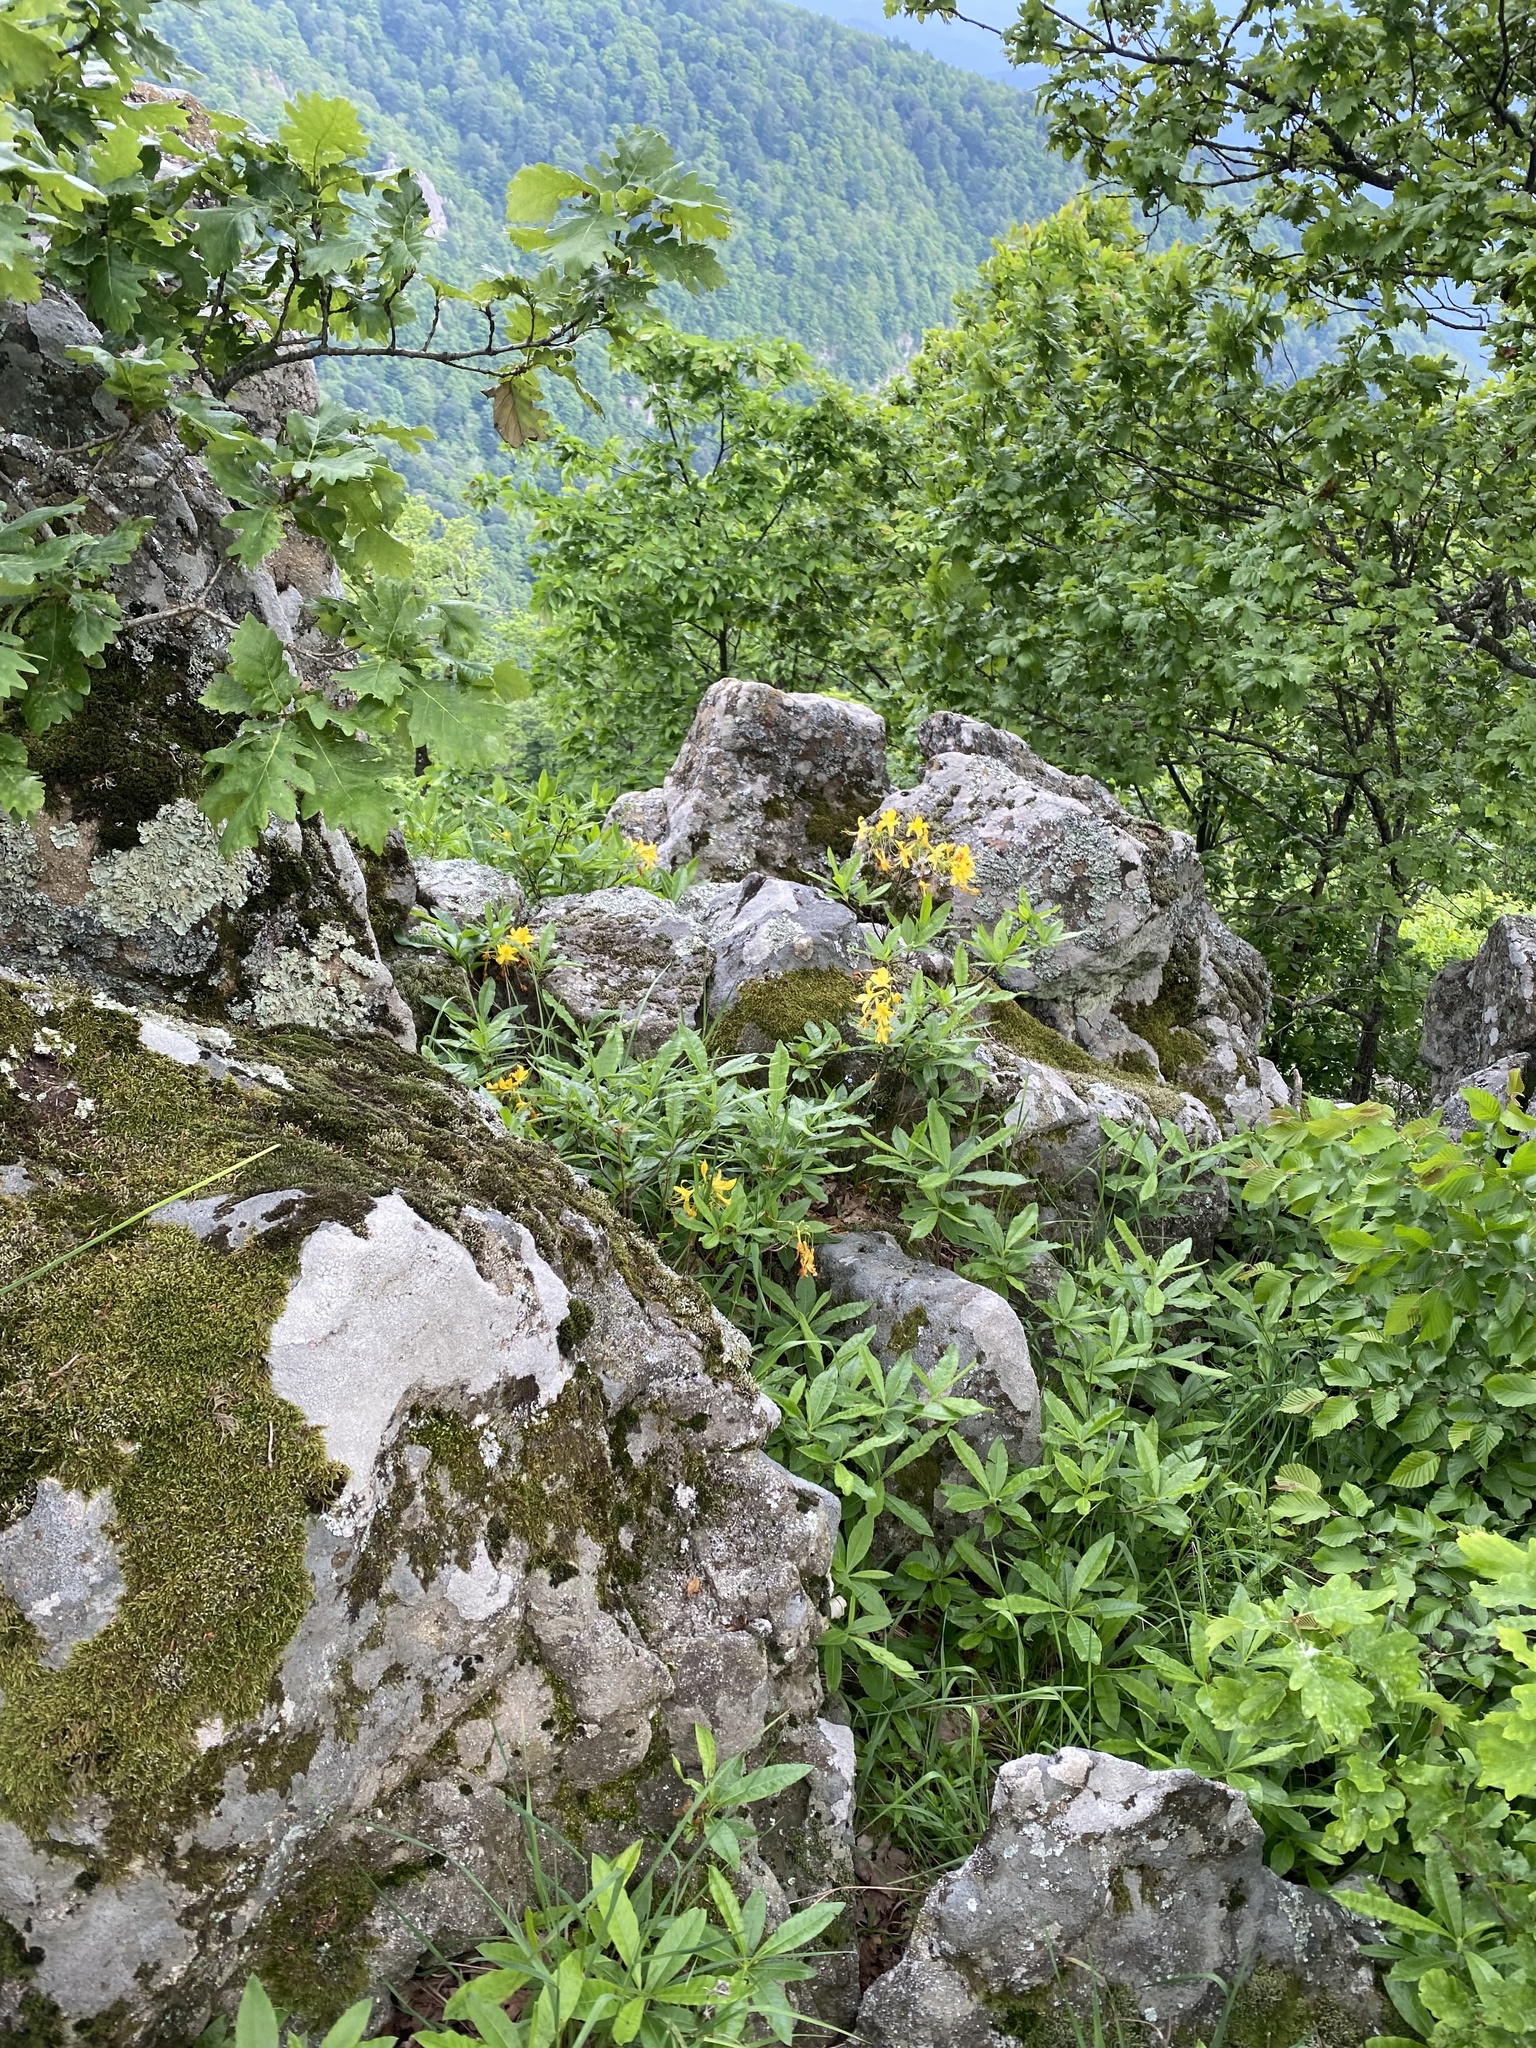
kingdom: Plantae
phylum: Tracheophyta
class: Magnoliopsida
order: Ericales
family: Ericaceae
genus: Rhododendron
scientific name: Rhododendron luteum
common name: Yellow azalea
